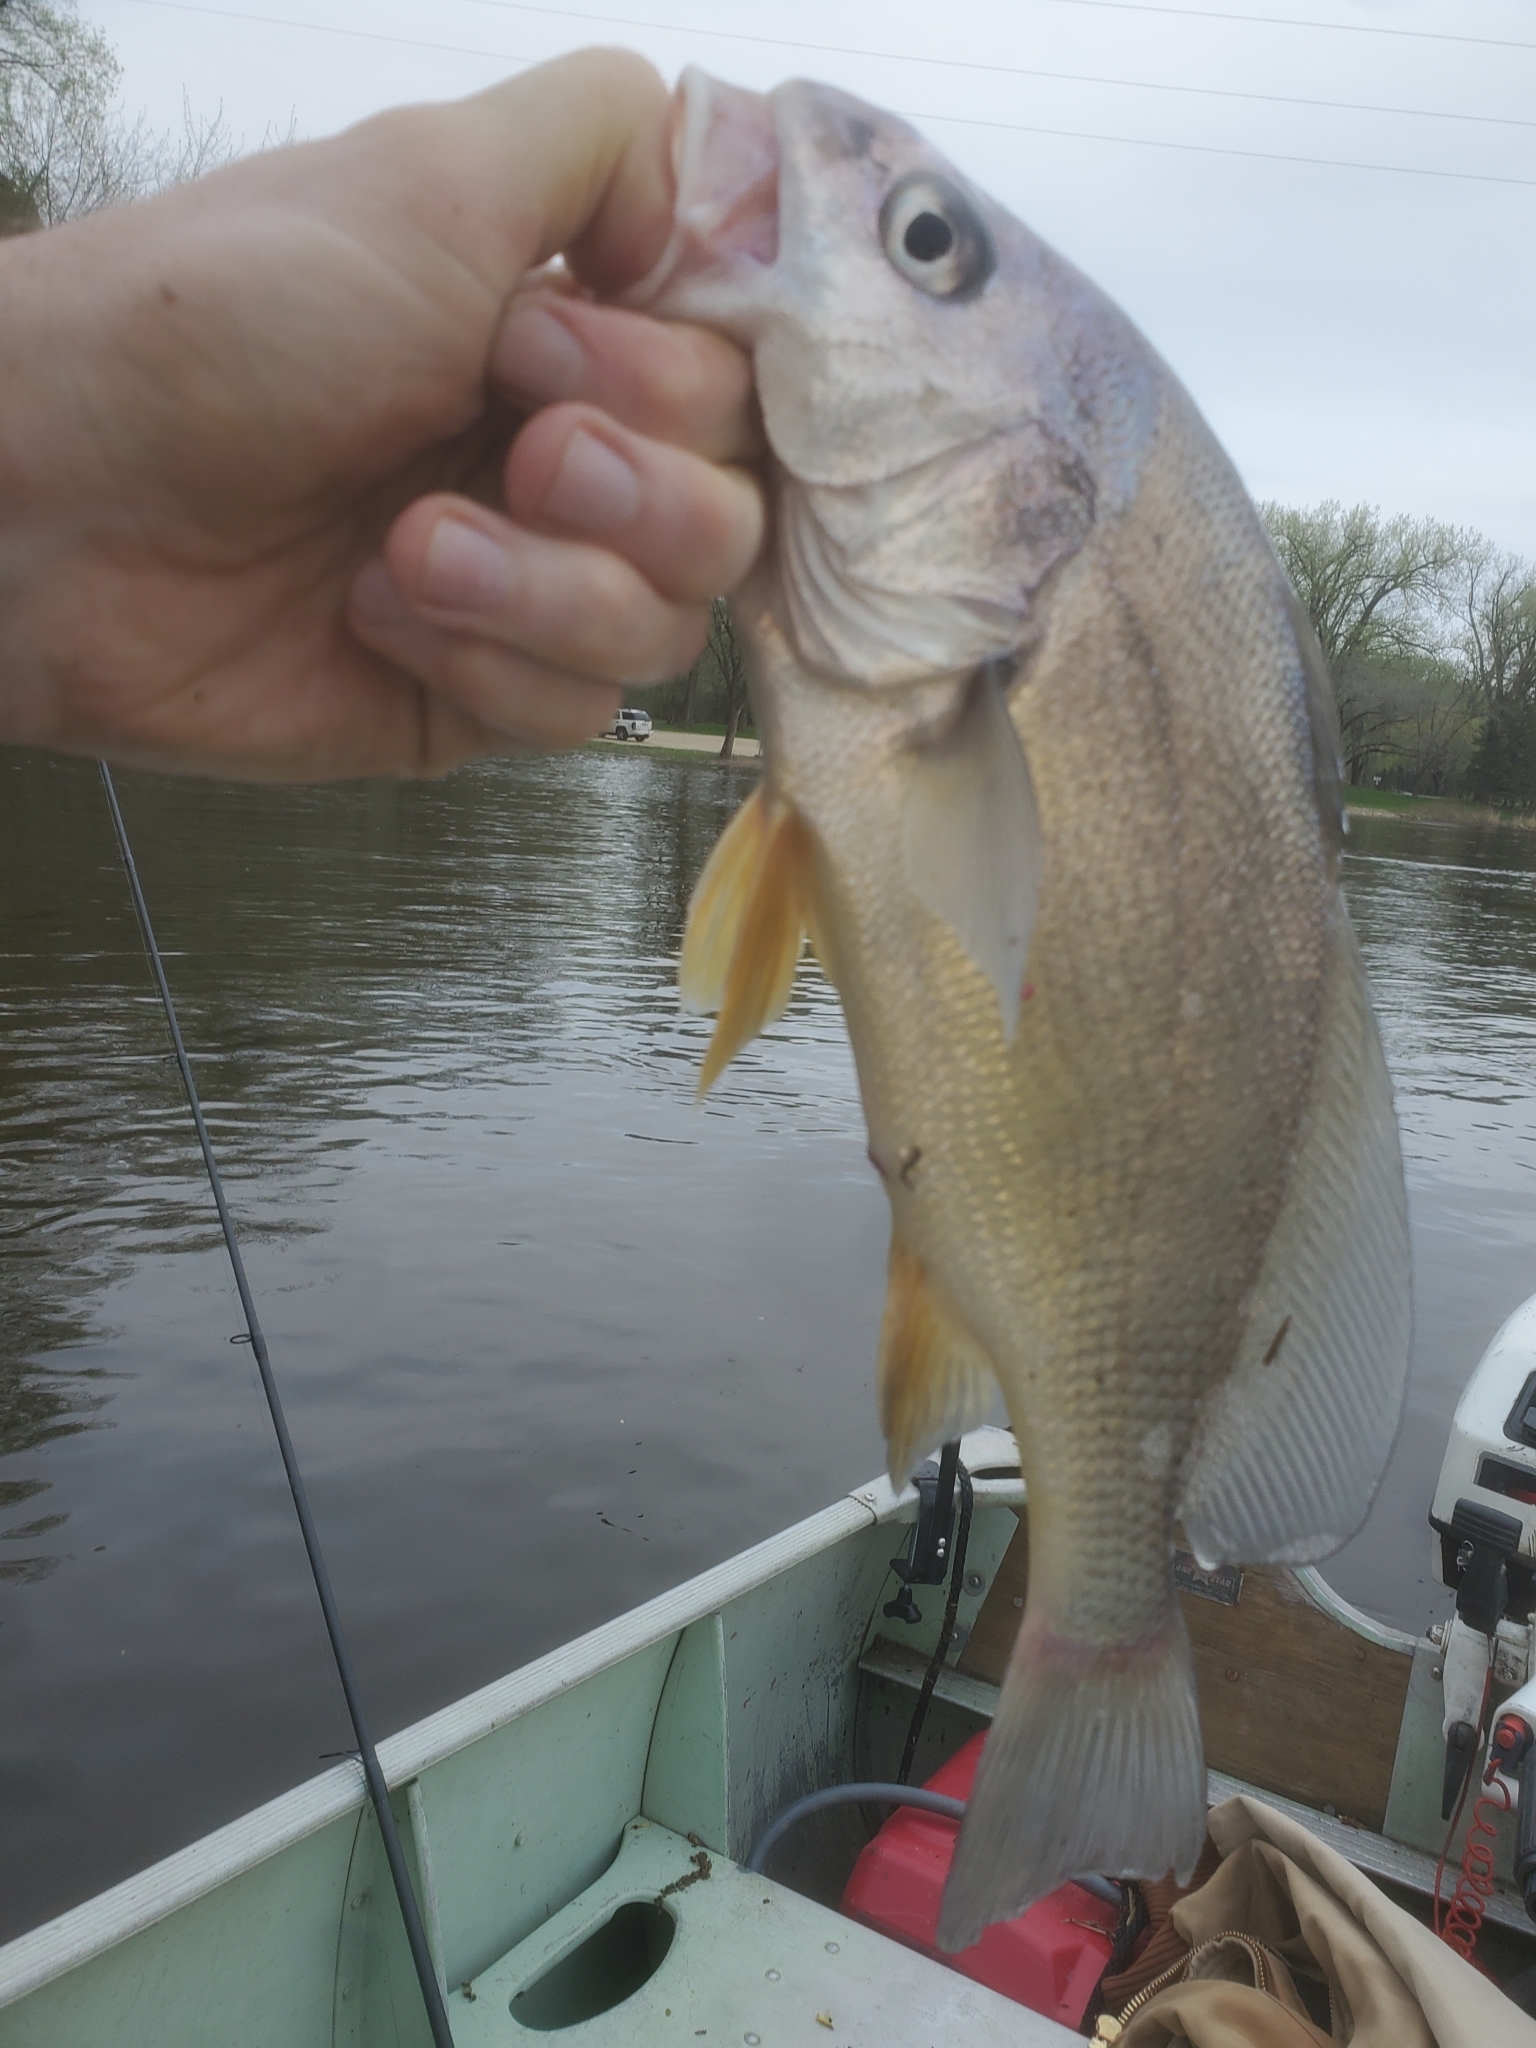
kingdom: Animalia
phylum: Chordata
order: Perciformes
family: Sciaenidae
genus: Aplodinotus
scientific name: Aplodinotus grunniens
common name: Freshwater drum
